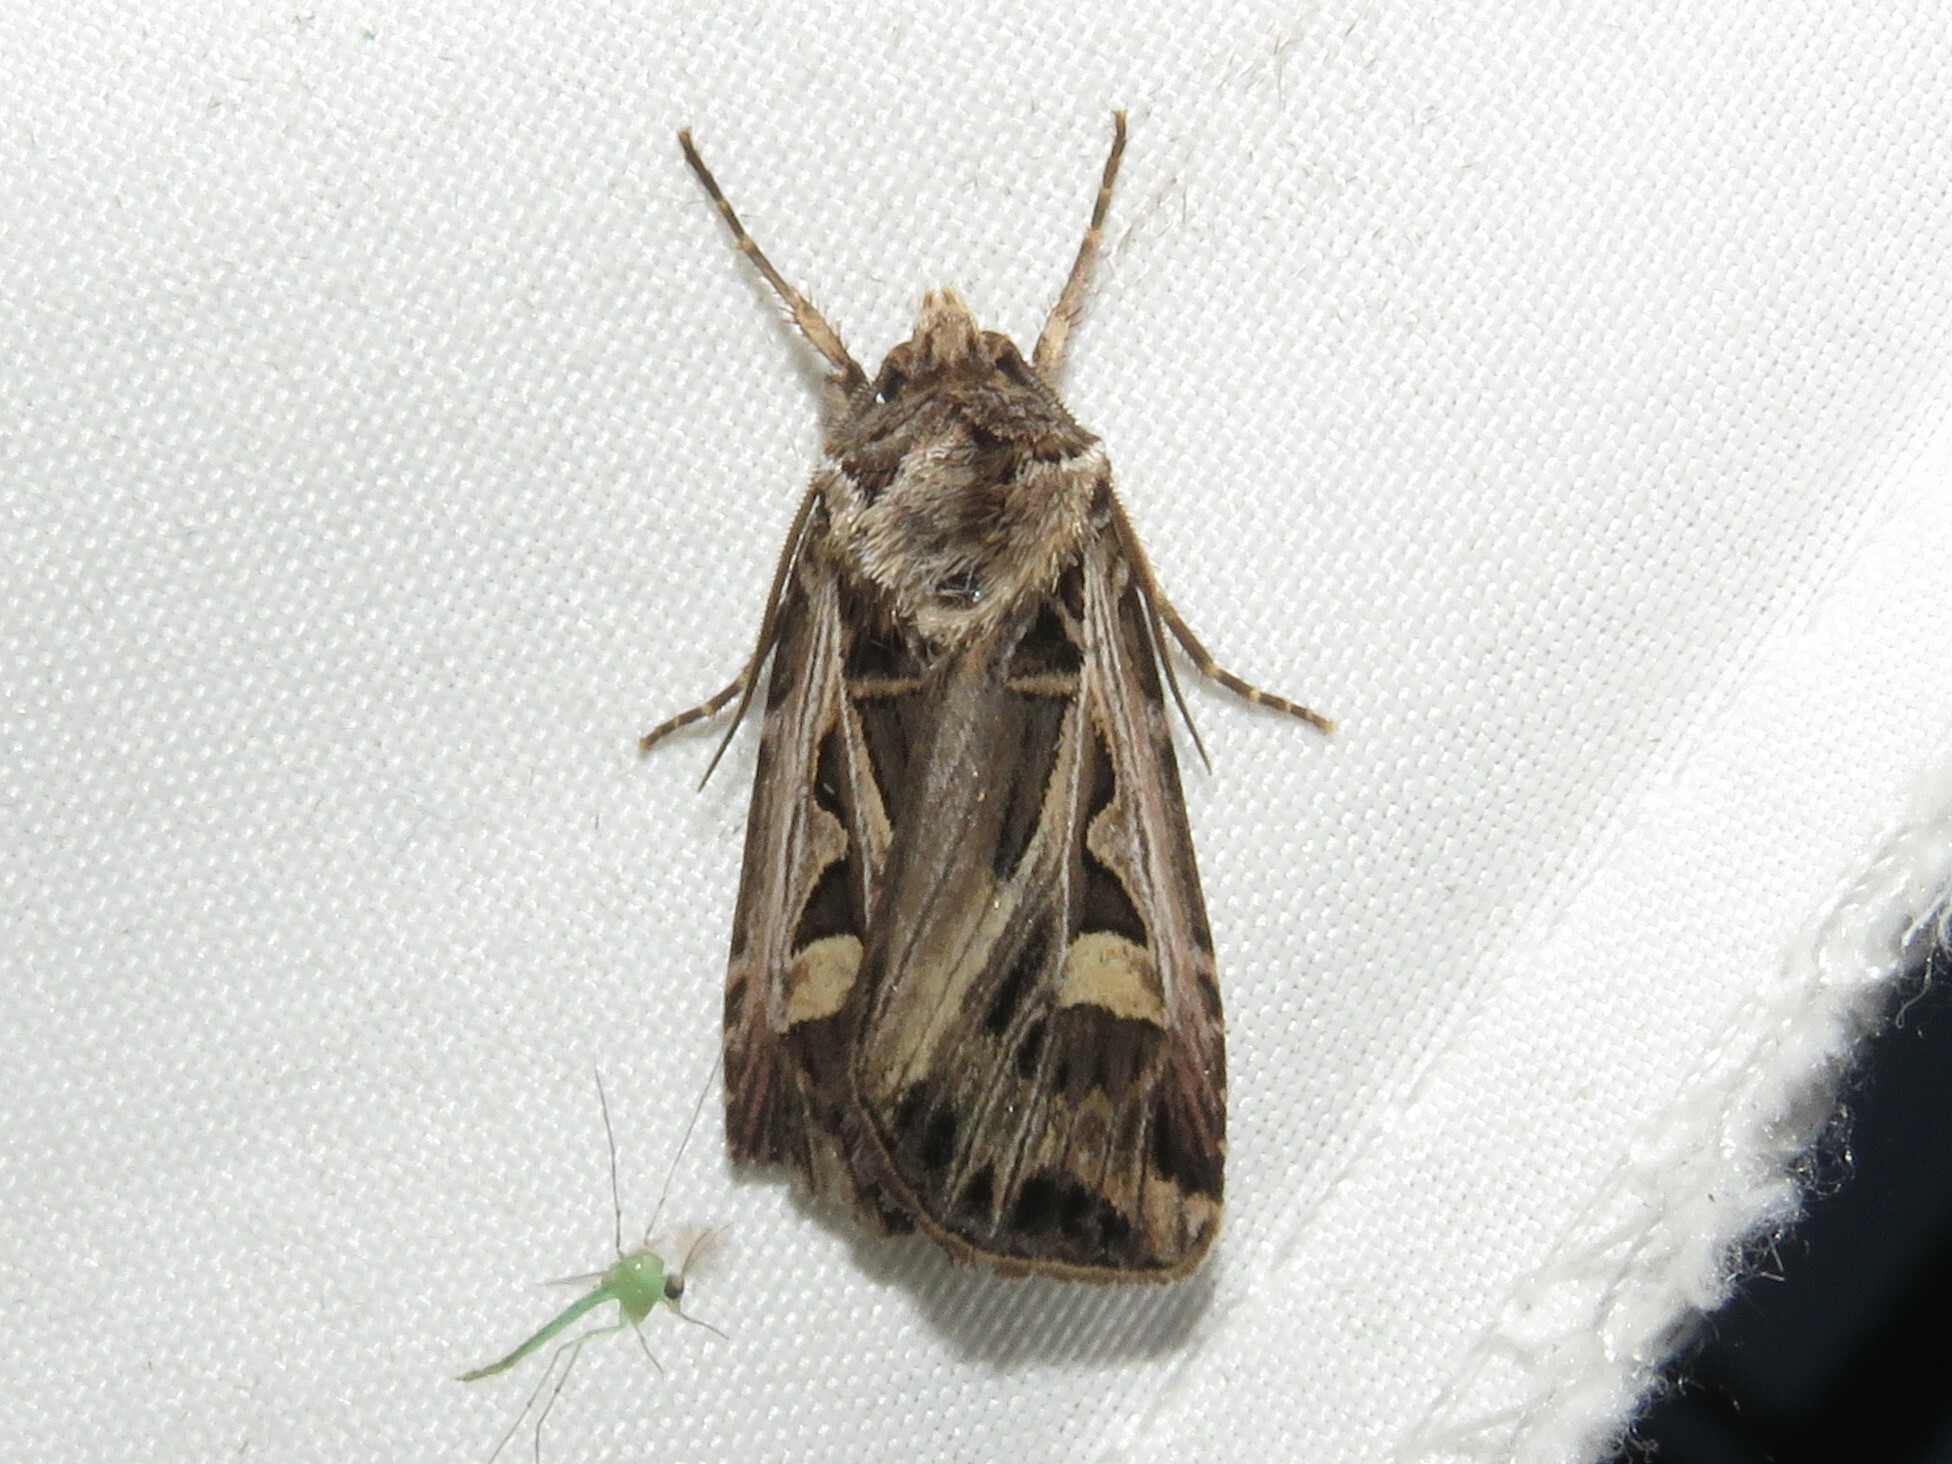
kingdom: Animalia
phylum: Arthropoda
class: Insecta
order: Lepidoptera
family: Noctuidae
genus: Feltia
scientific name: Feltia jaculifera
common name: Dingy cutworm moth
